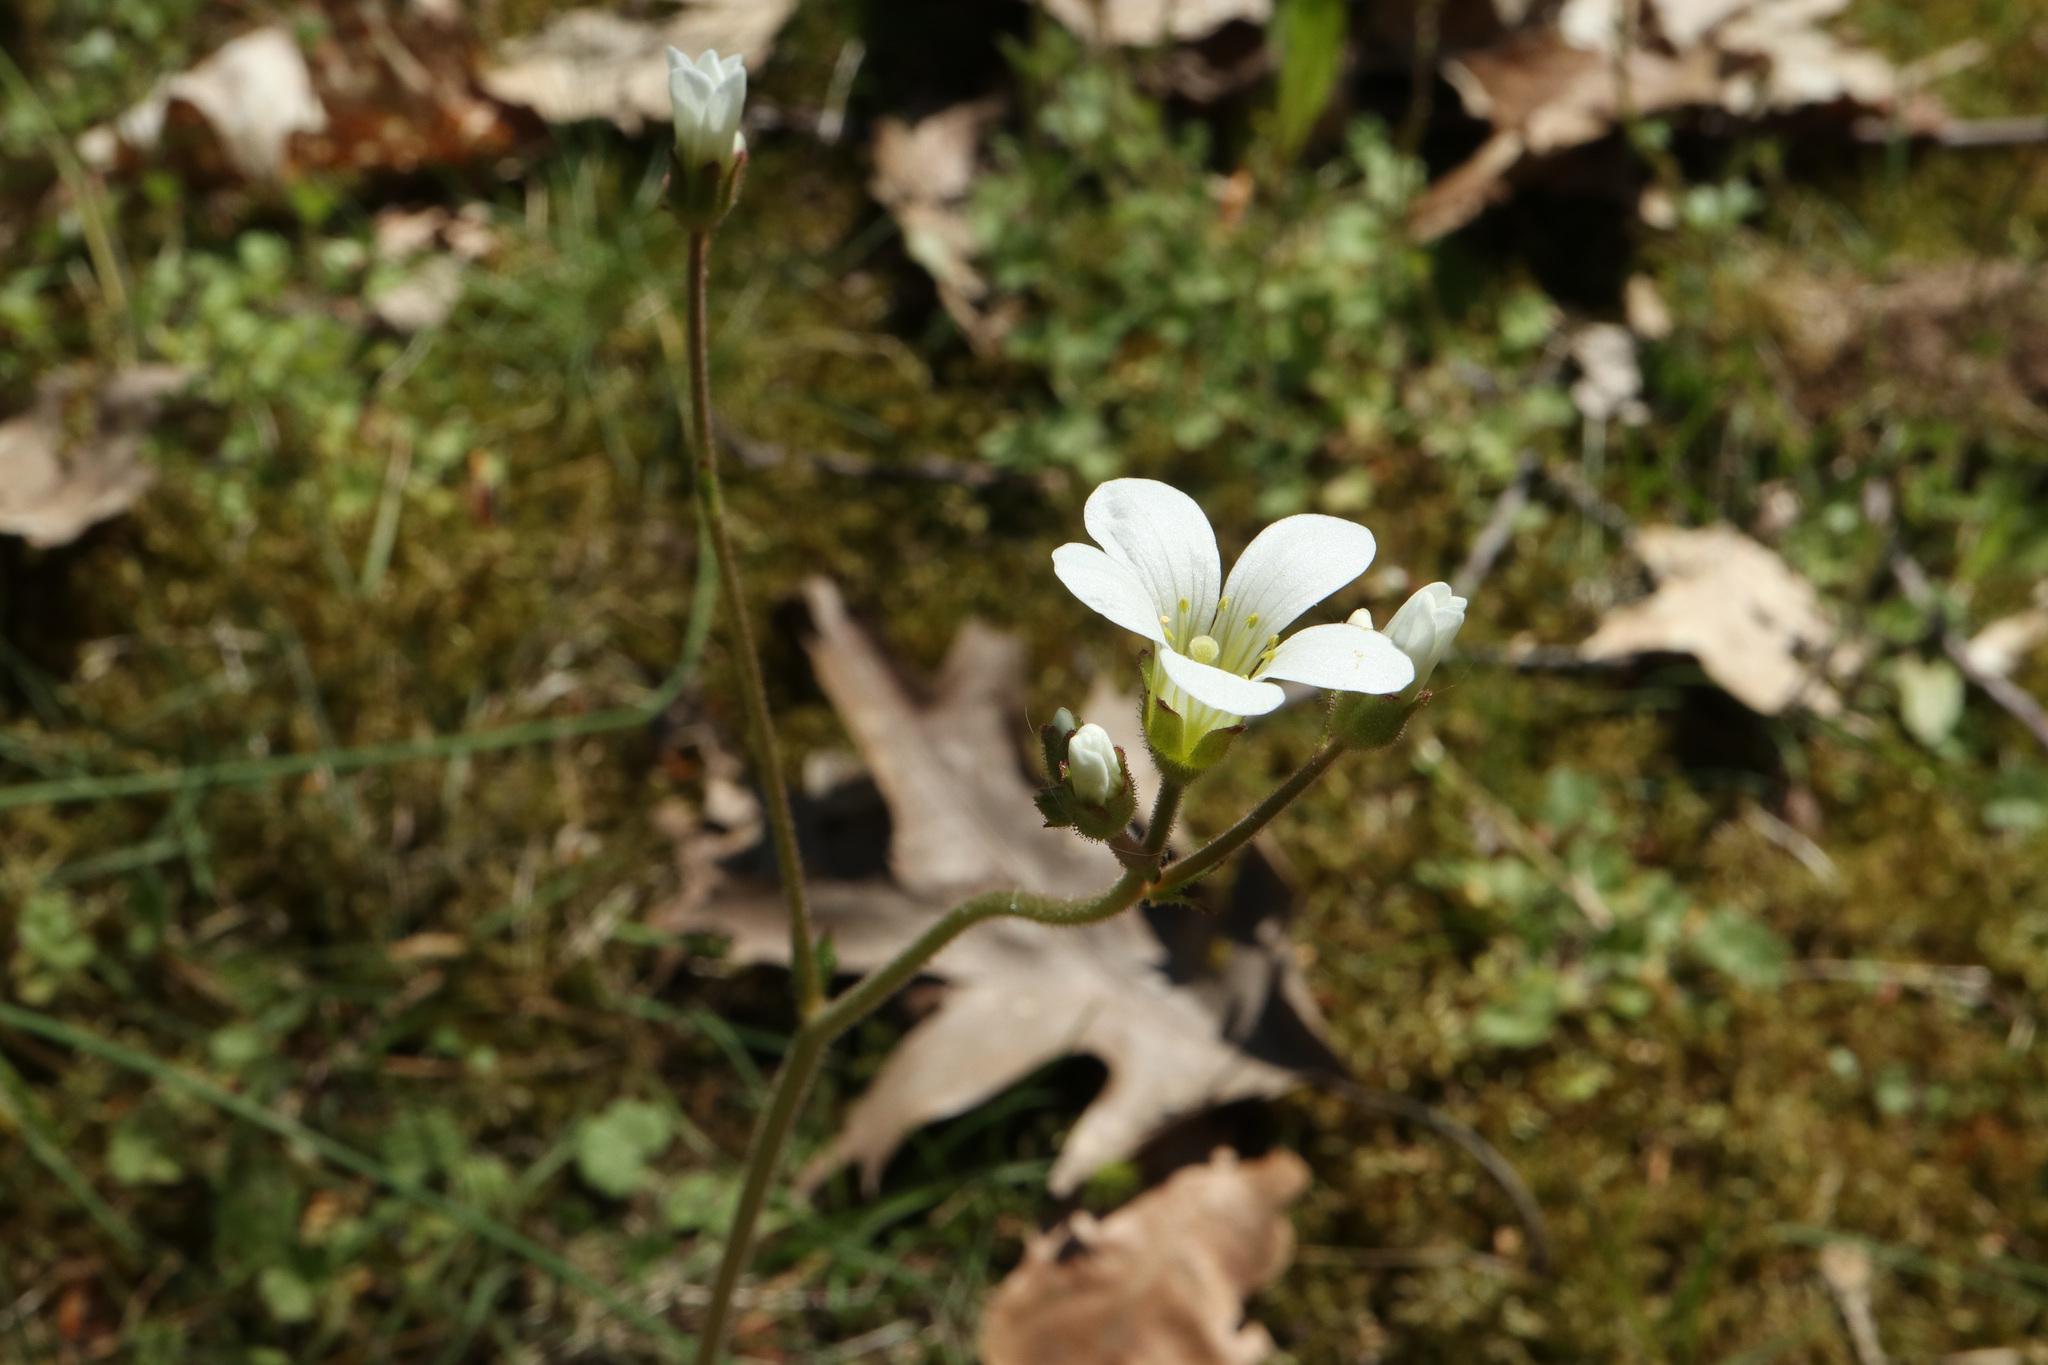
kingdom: Plantae
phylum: Tracheophyta
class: Magnoliopsida
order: Saxifragales
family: Saxifragaceae
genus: Saxifraga
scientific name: Saxifraga granulata
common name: Meadow saxifrage
